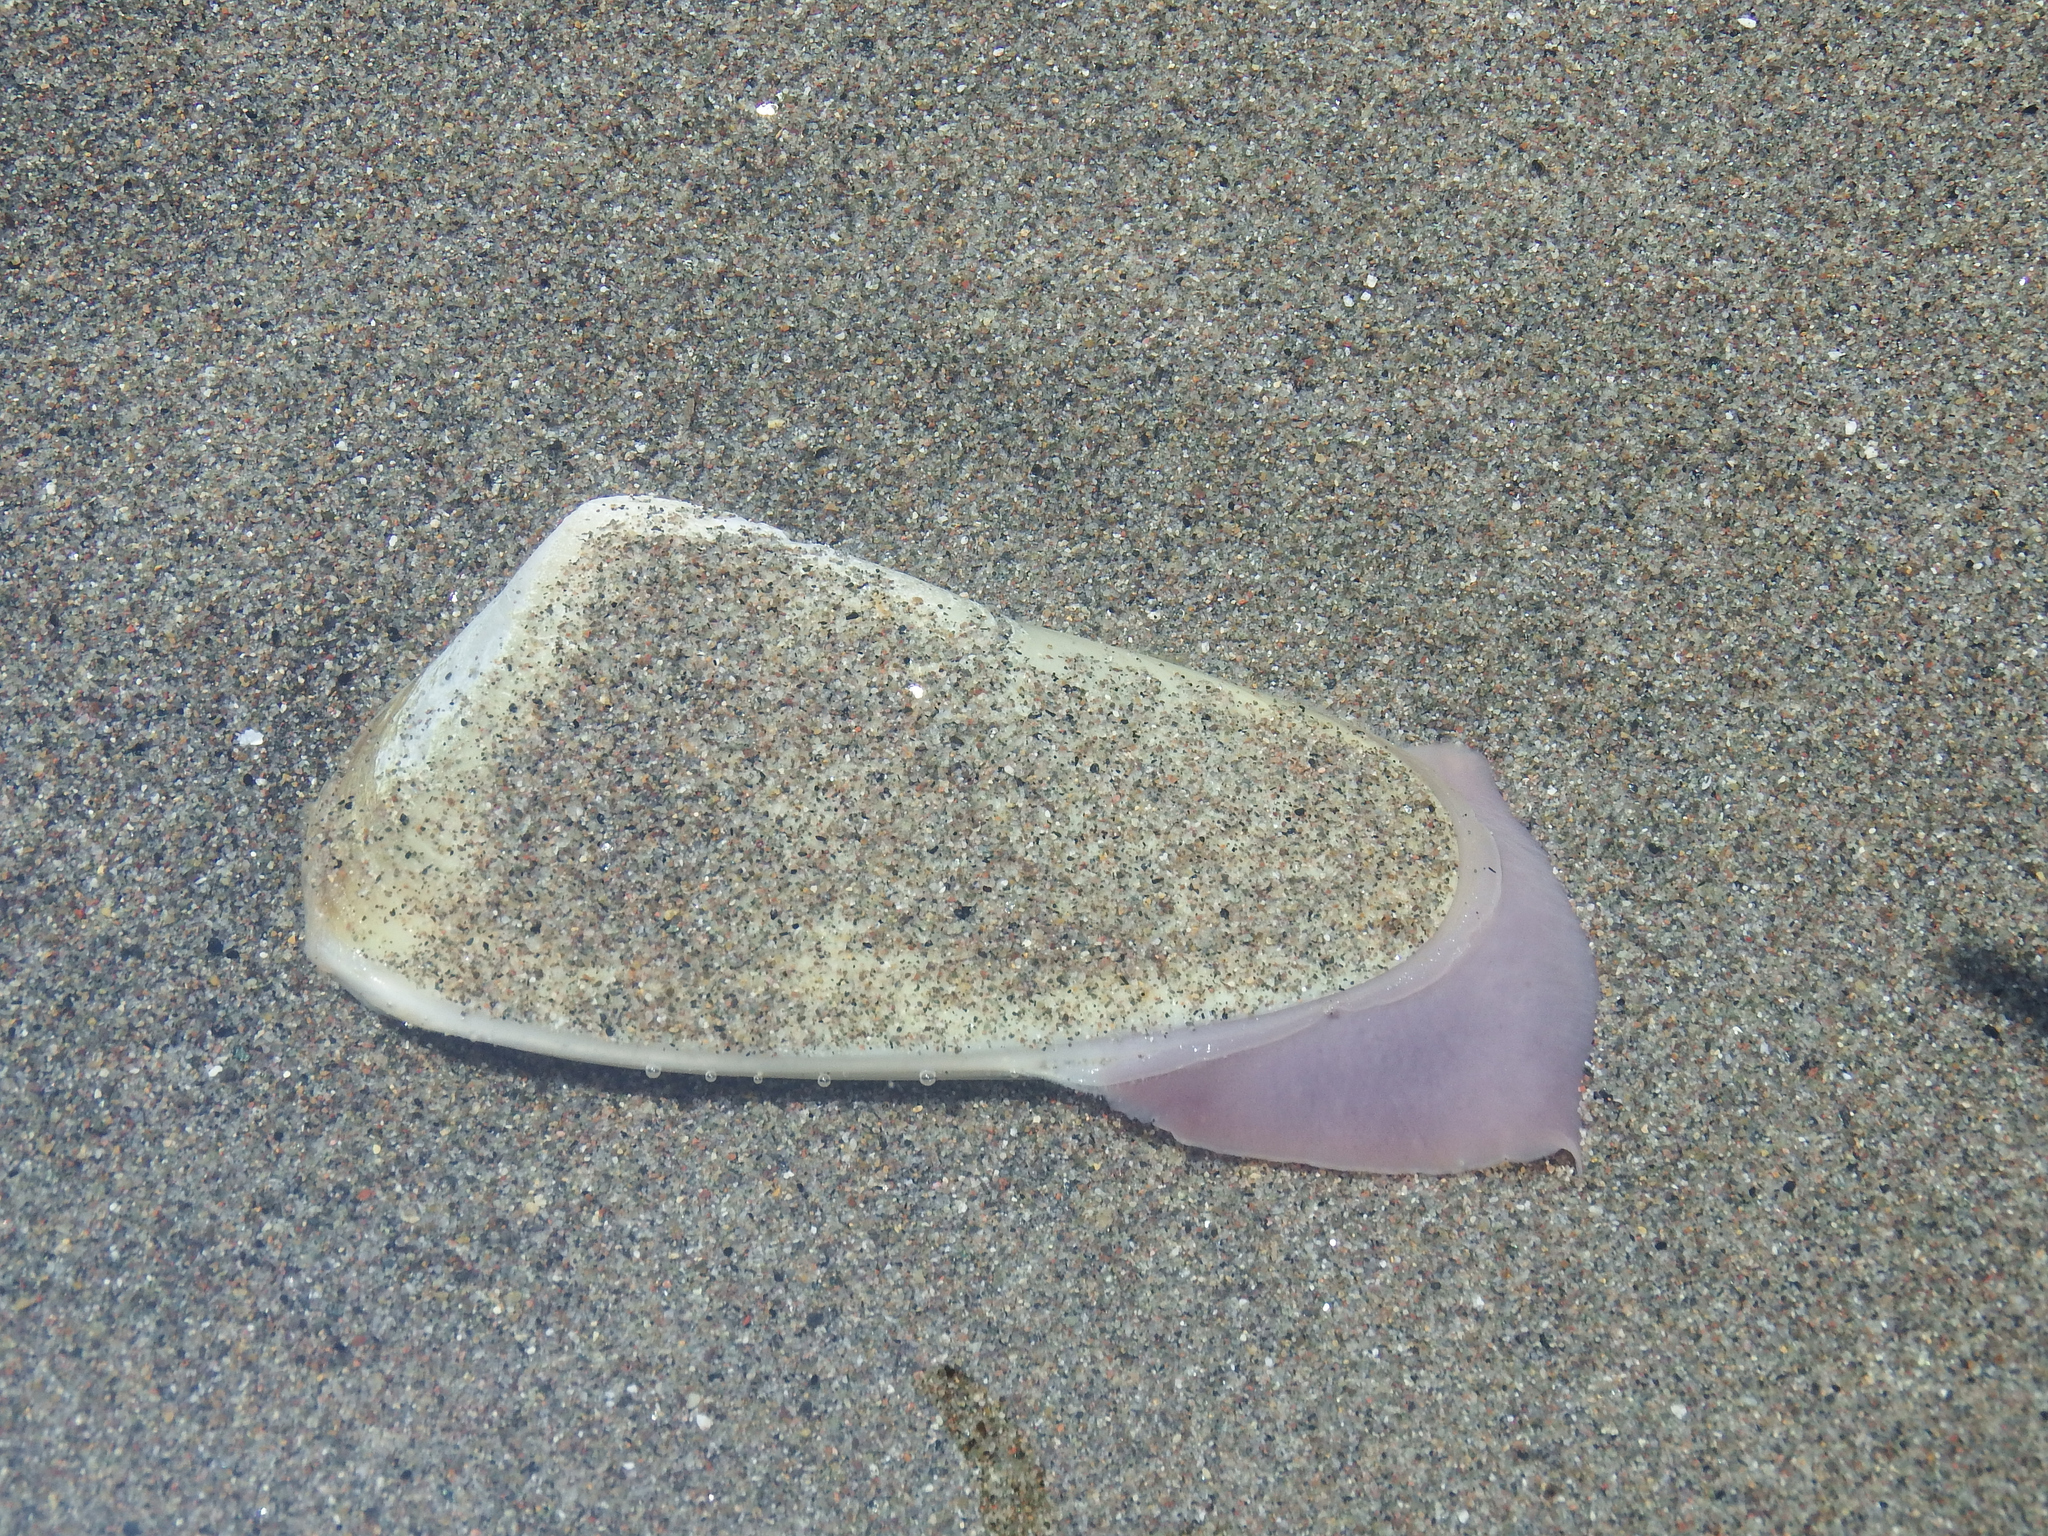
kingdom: Animalia
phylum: Mollusca
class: Bivalvia
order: Venerida
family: Mesodesmatidae
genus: Mesodesma
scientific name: Mesodesma donacium
